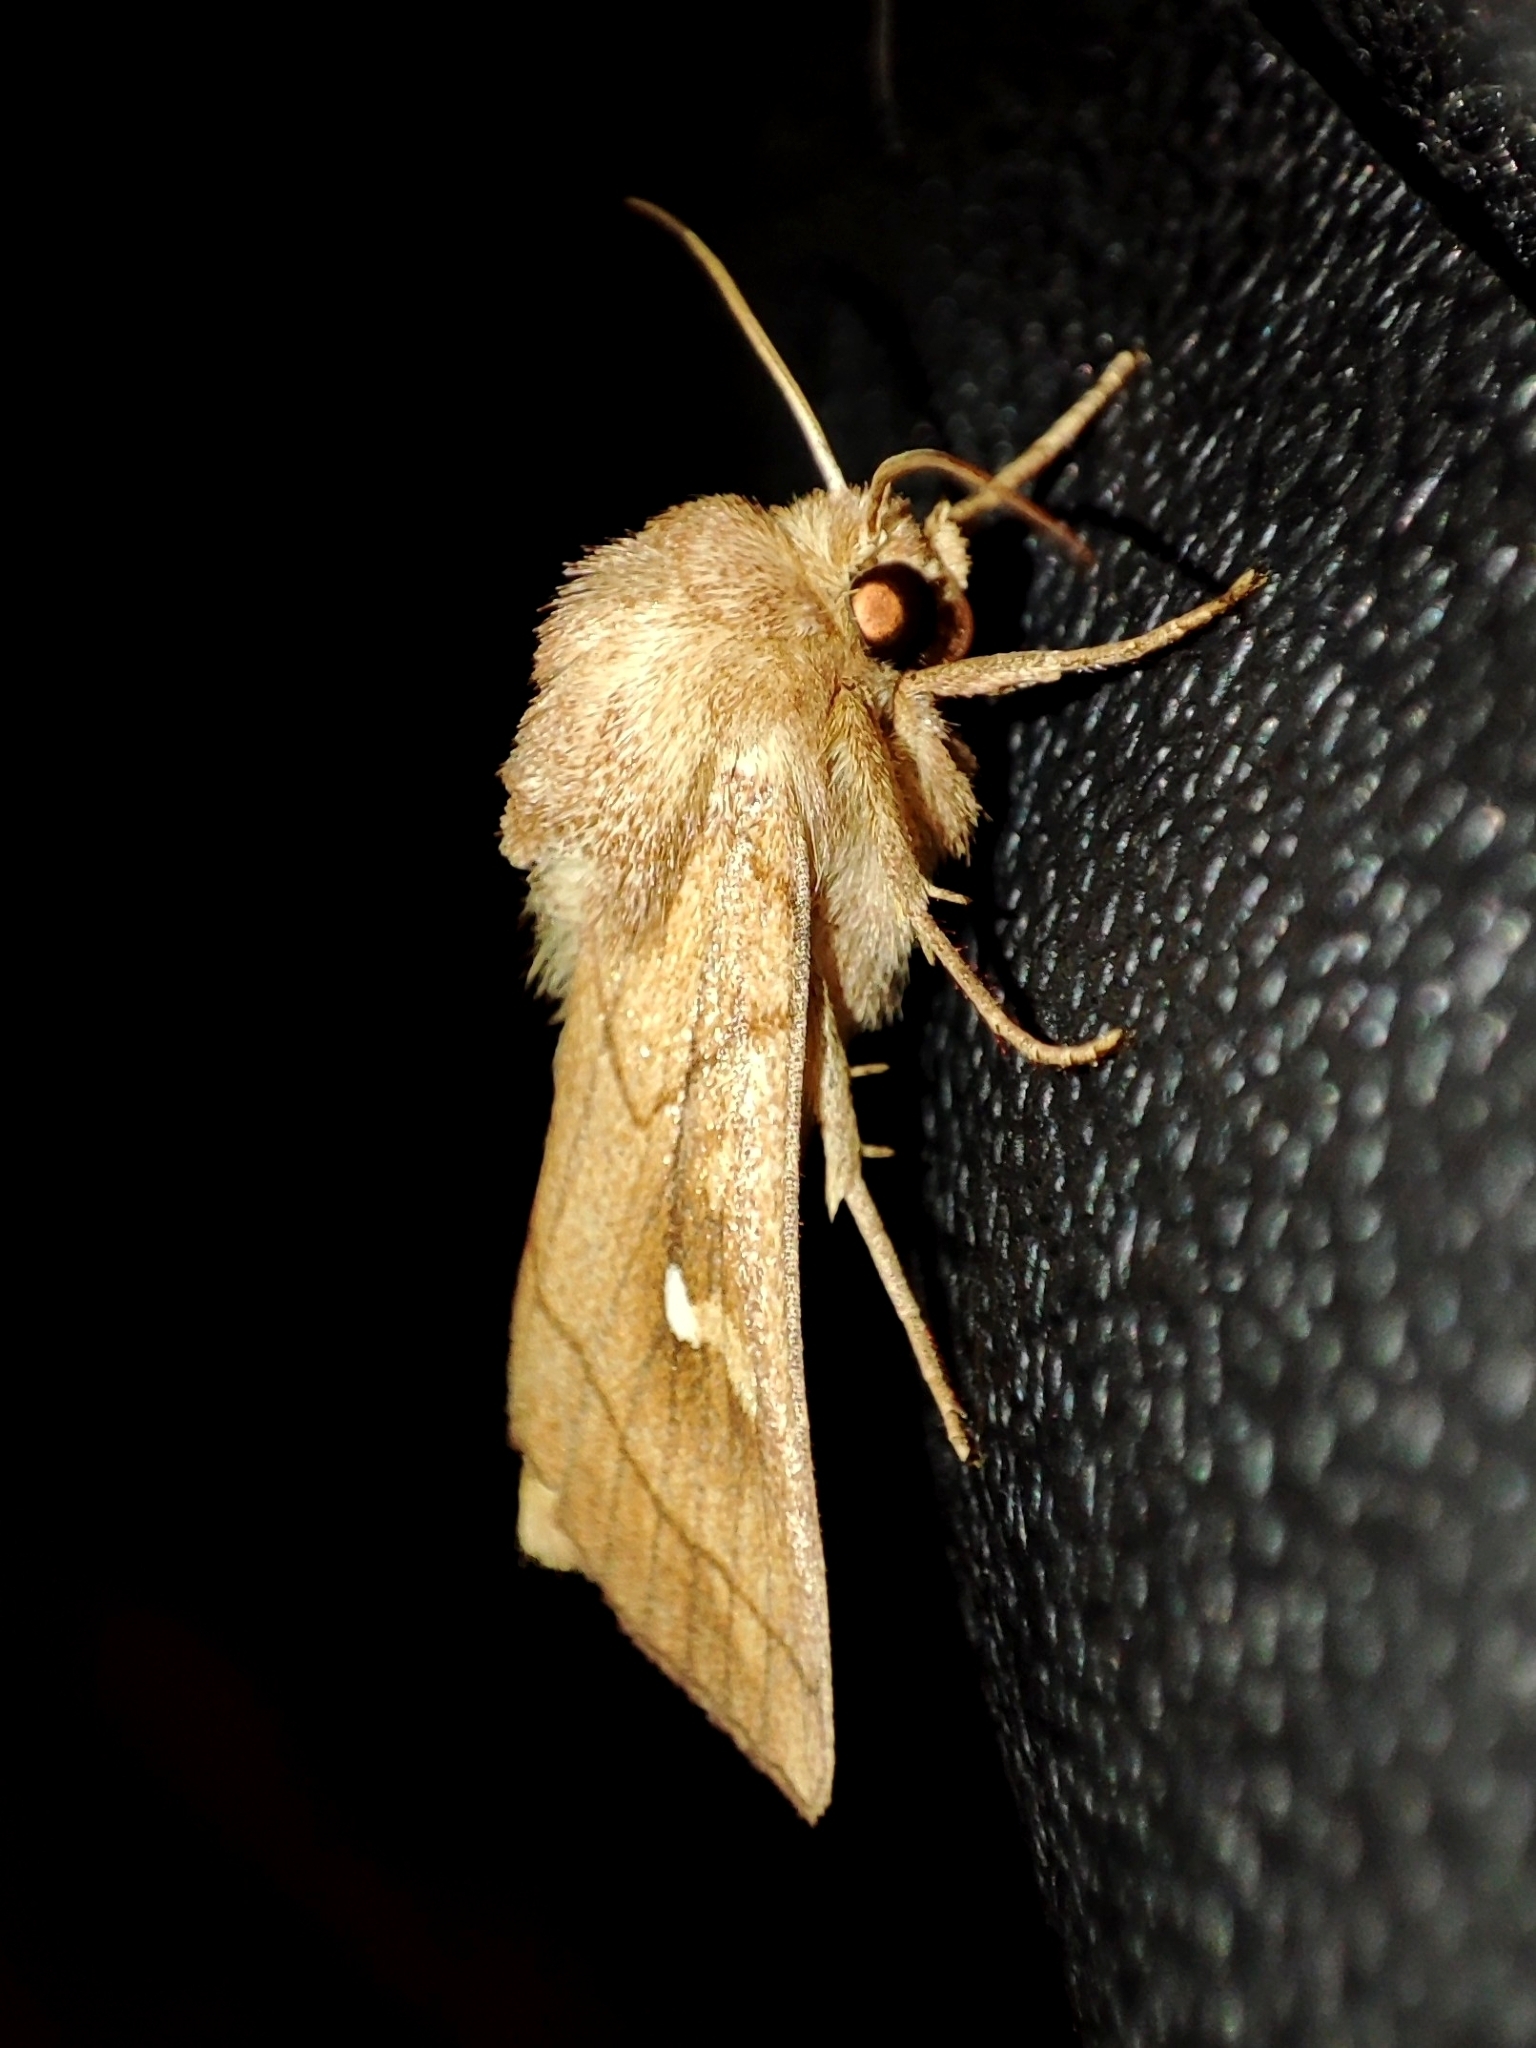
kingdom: Animalia
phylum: Arthropoda
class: Insecta
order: Lepidoptera
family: Noctuidae
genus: Mythimna
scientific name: Mythimna conigera
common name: Brown-line bright-eye
